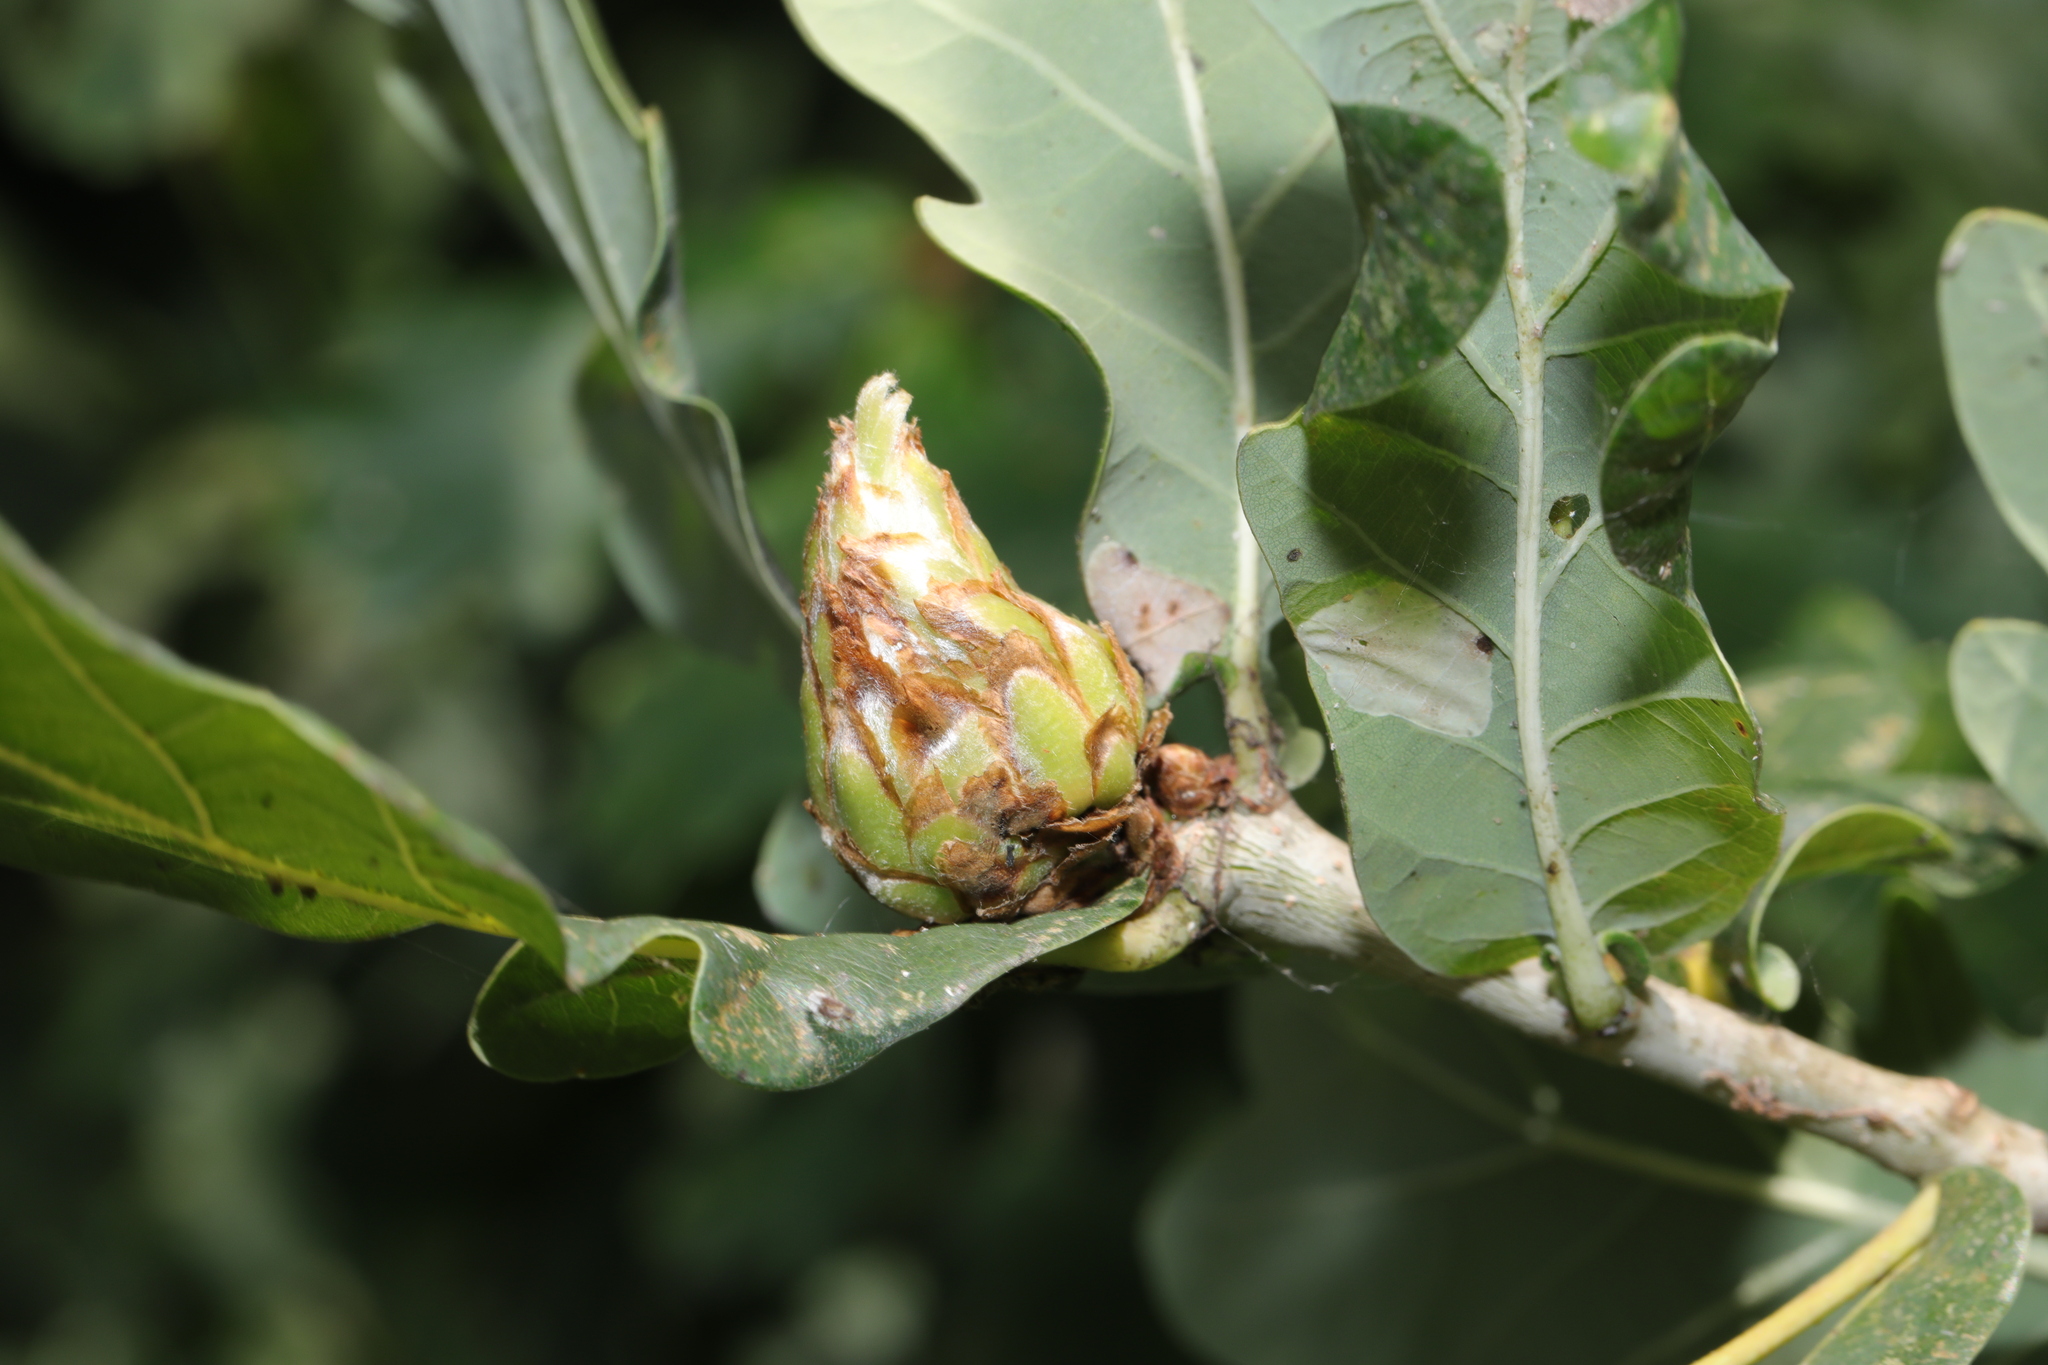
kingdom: Animalia
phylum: Arthropoda
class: Insecta
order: Hymenoptera
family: Cynipidae
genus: Andricus
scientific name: Andricus foecundatrix
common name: Artichoke gall
